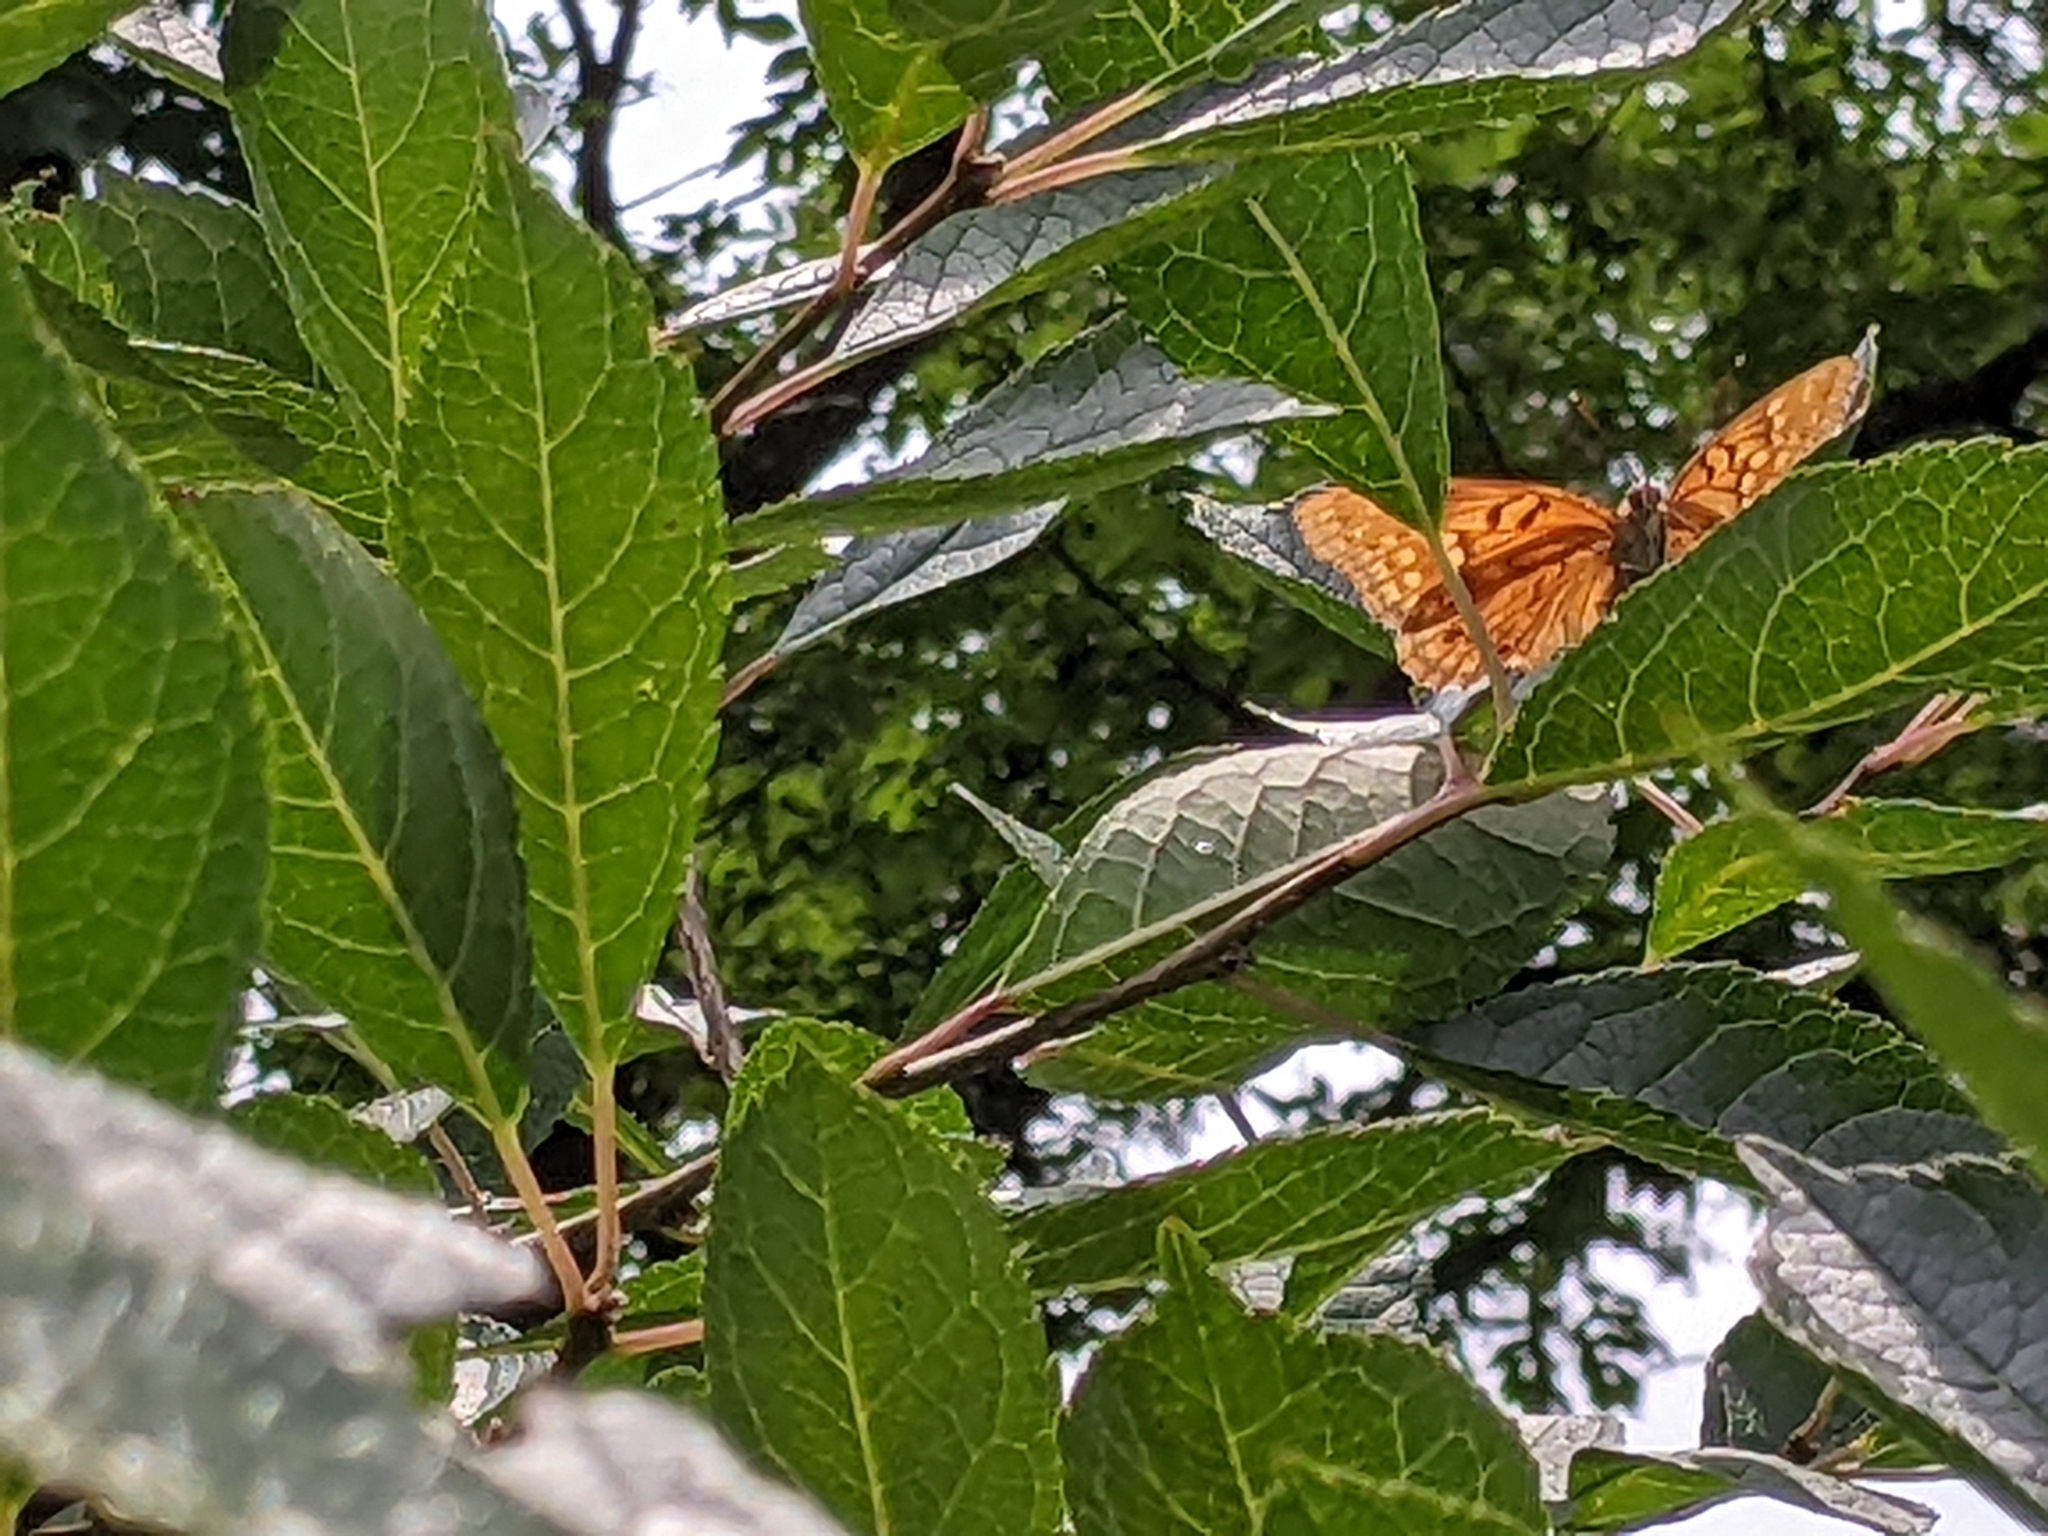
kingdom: Animalia
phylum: Arthropoda
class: Insecta
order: Lepidoptera
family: Nymphalidae
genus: Euptoieta
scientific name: Euptoieta claudia
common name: Variegated fritillary
